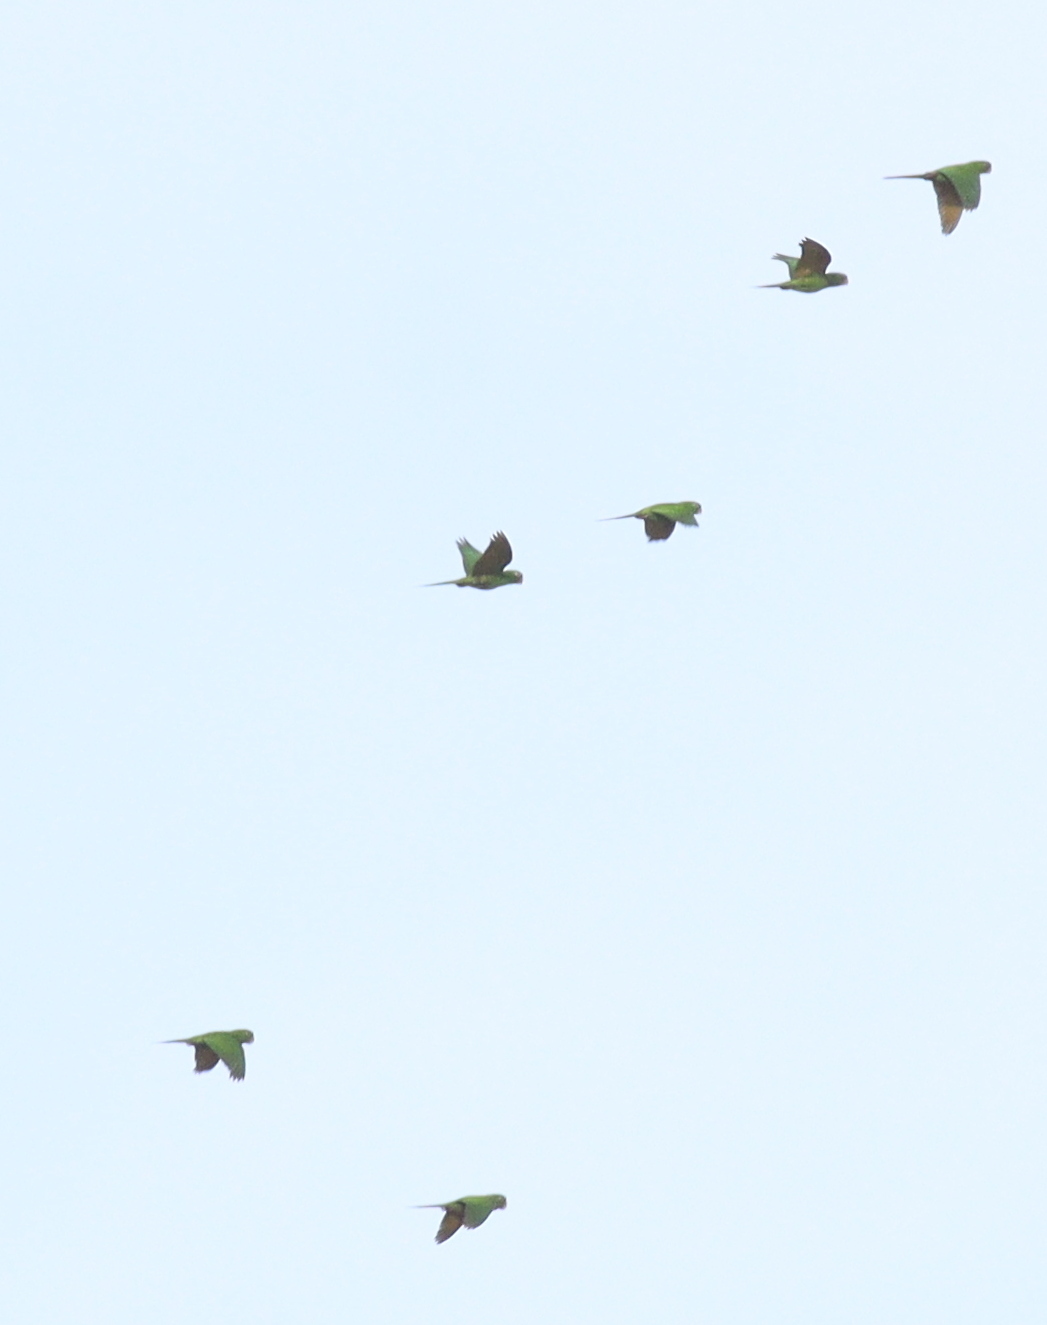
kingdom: Animalia
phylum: Chordata
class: Aves
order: Psittaciformes
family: Psittacidae
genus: Aratinga
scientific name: Aratinga finschi
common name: Crimson-fronted parakeet
